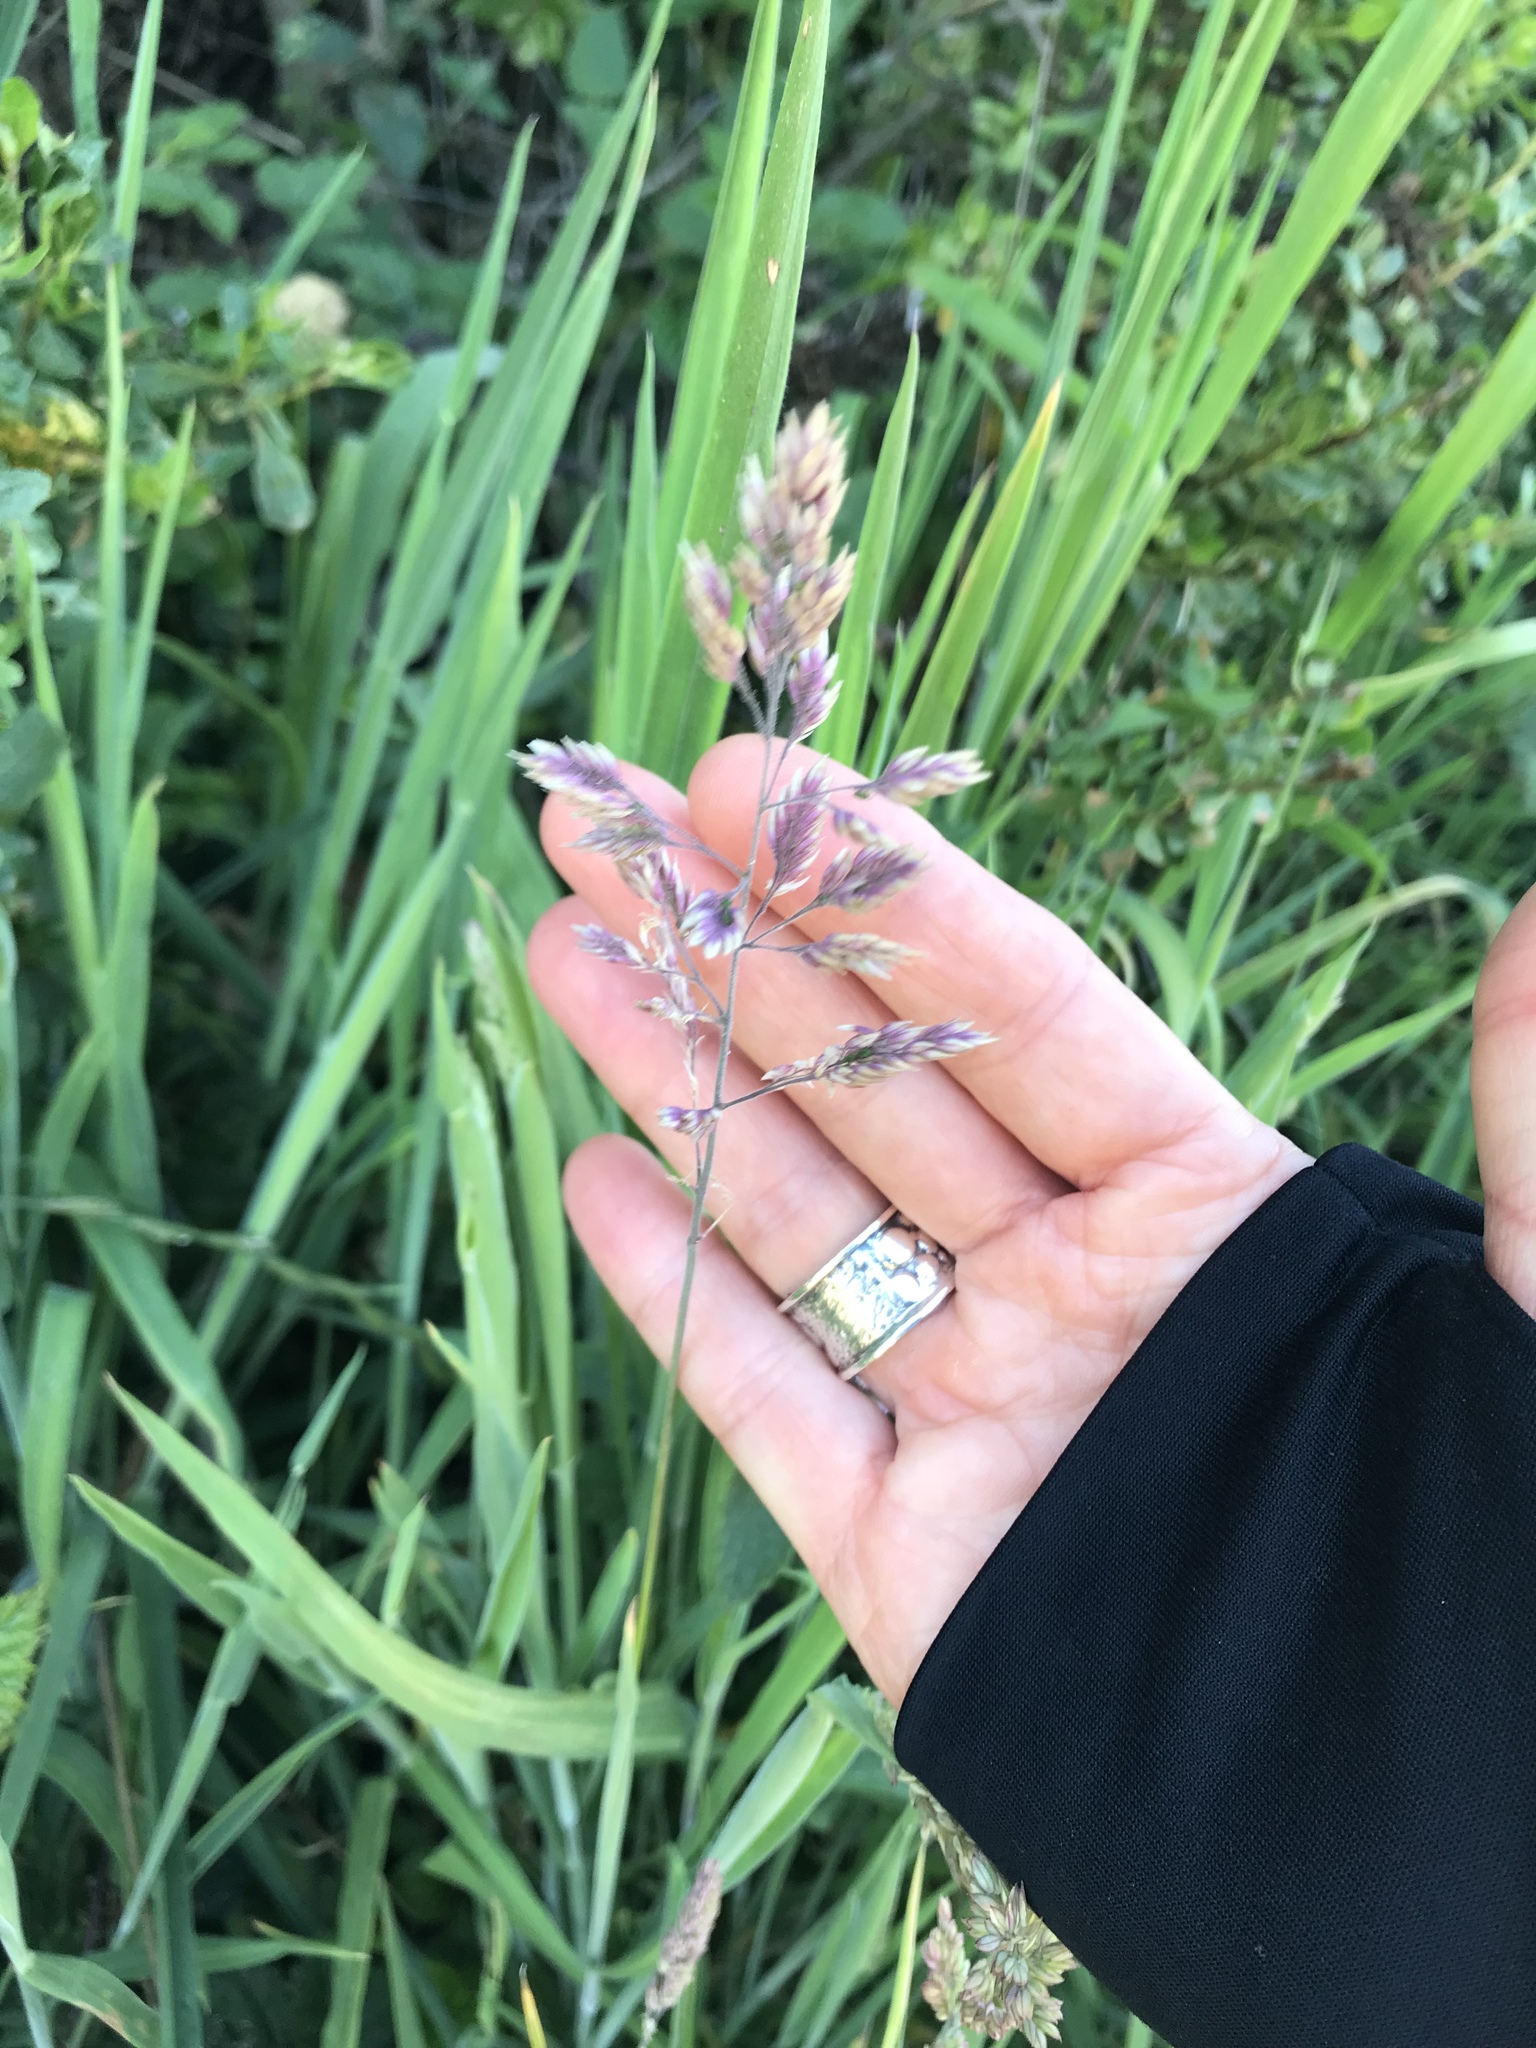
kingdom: Plantae
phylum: Tracheophyta
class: Liliopsida
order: Poales
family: Poaceae
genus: Holcus
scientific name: Holcus lanatus
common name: Yorkshire-fog
